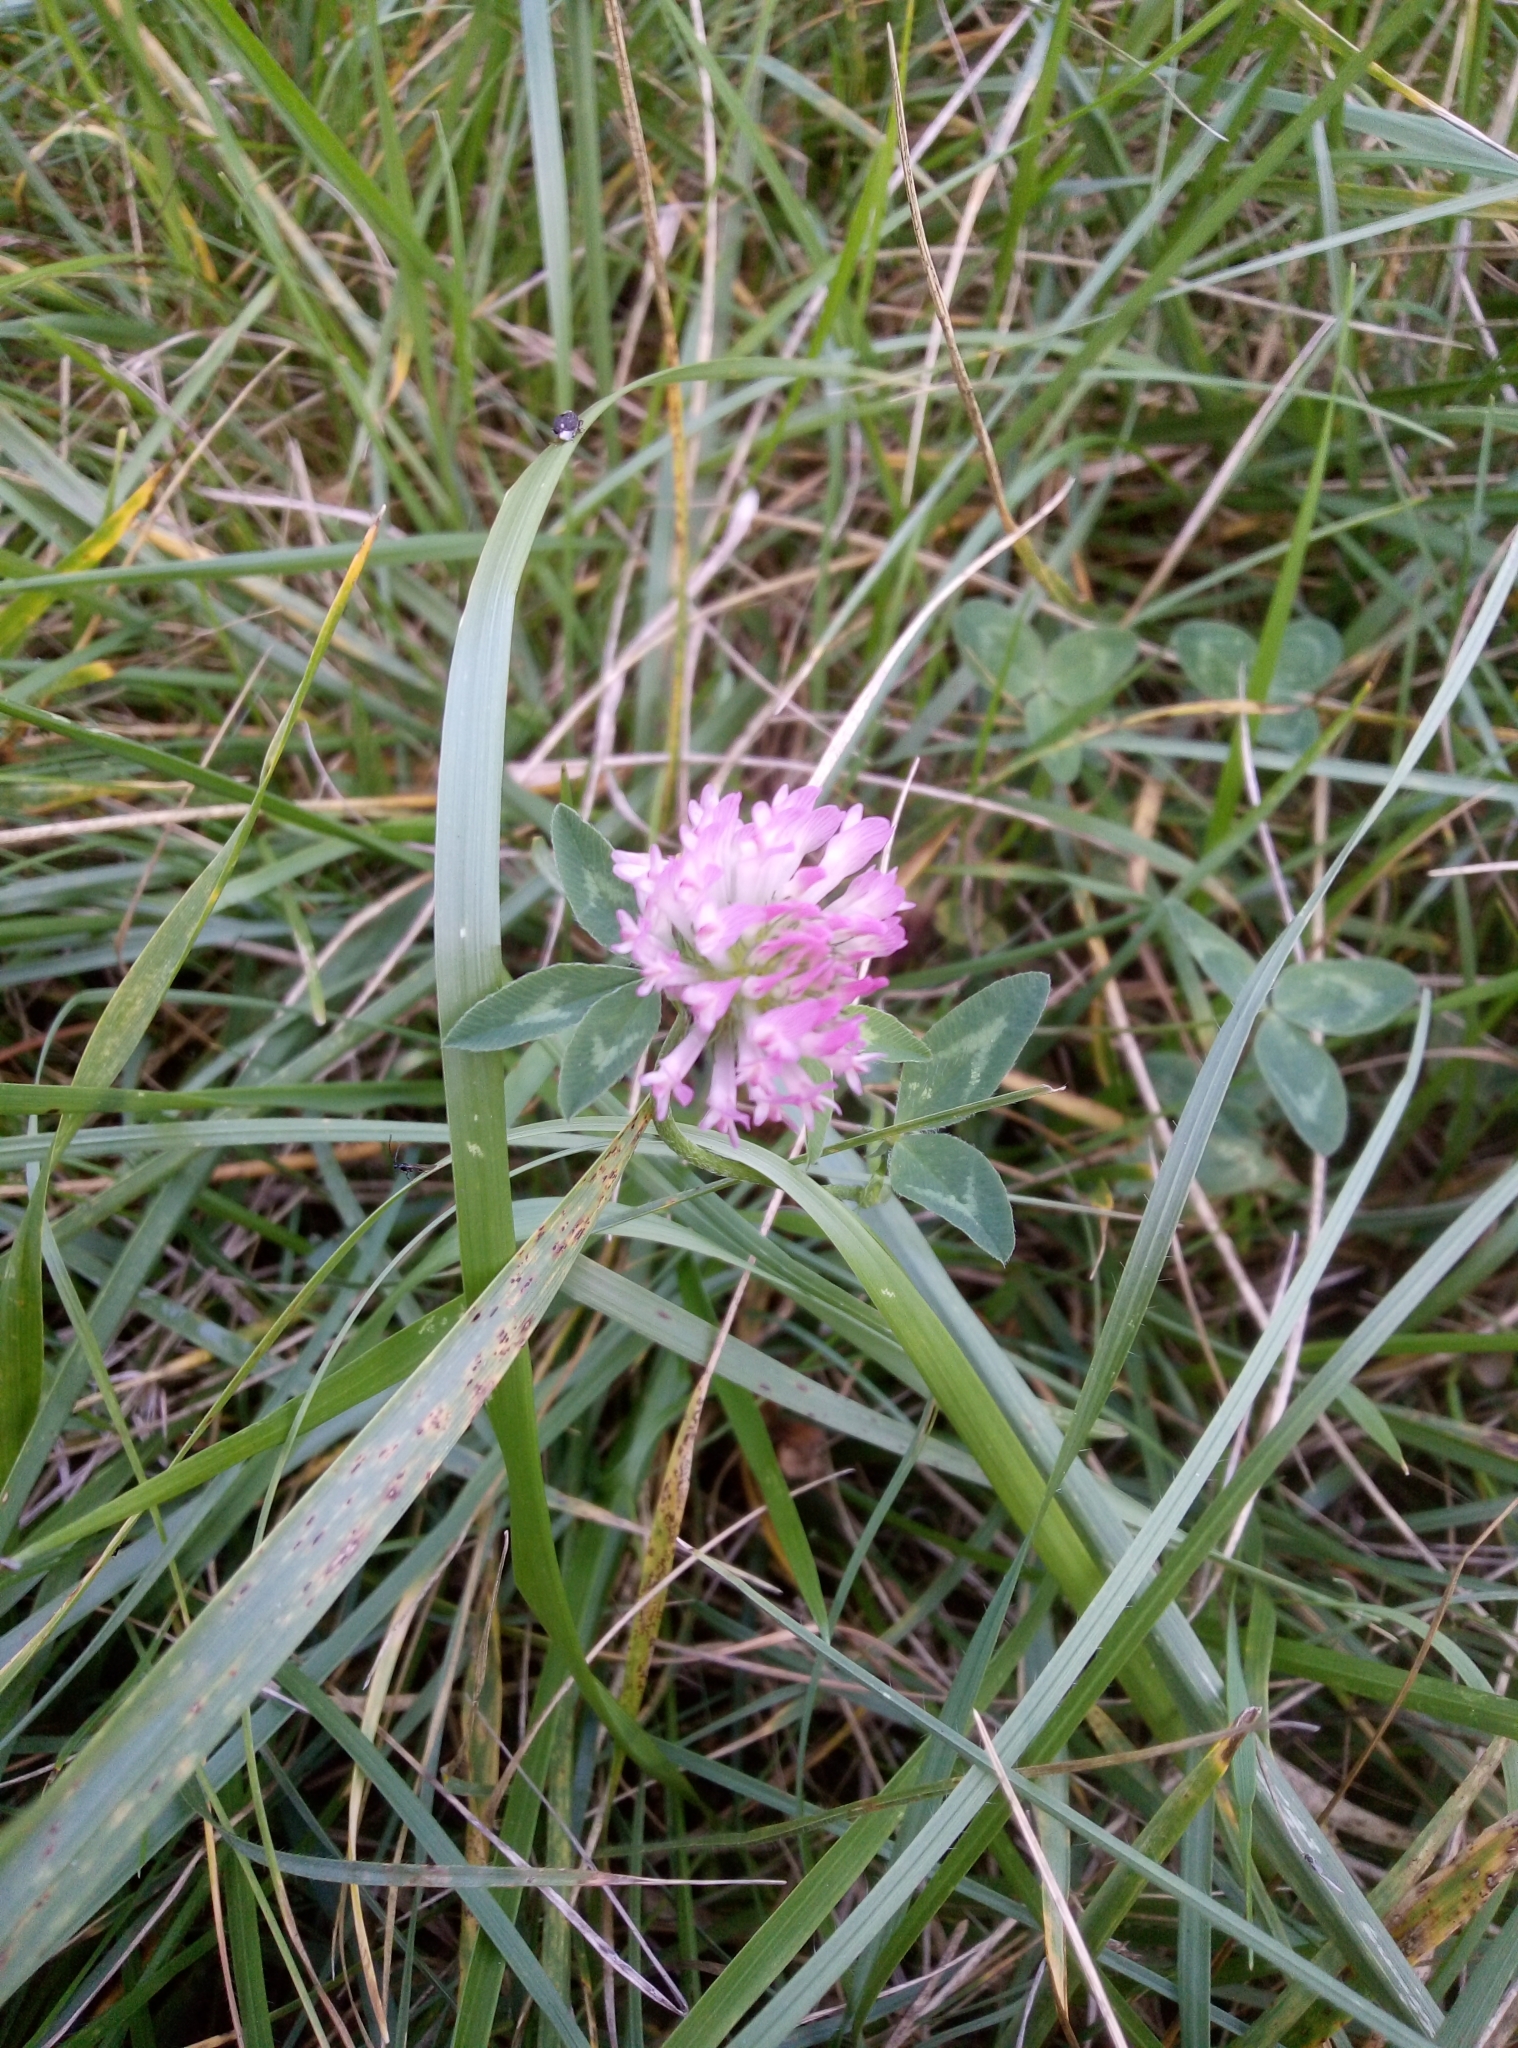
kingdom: Plantae
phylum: Tracheophyta
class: Magnoliopsida
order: Fabales
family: Fabaceae
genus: Trifolium
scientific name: Trifolium pratense
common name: Red clover
